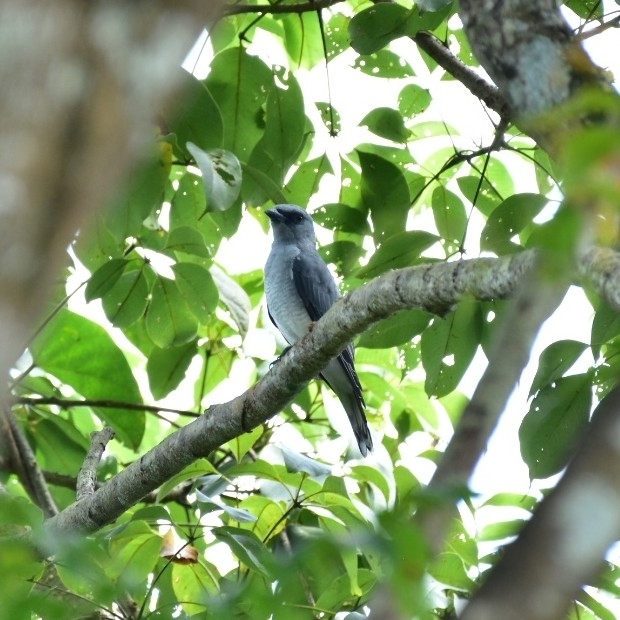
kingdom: Animalia
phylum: Chordata
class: Aves
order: Passeriformes
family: Campephagidae
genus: Coracina
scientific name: Coracina macei
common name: Large cuckooshrike
